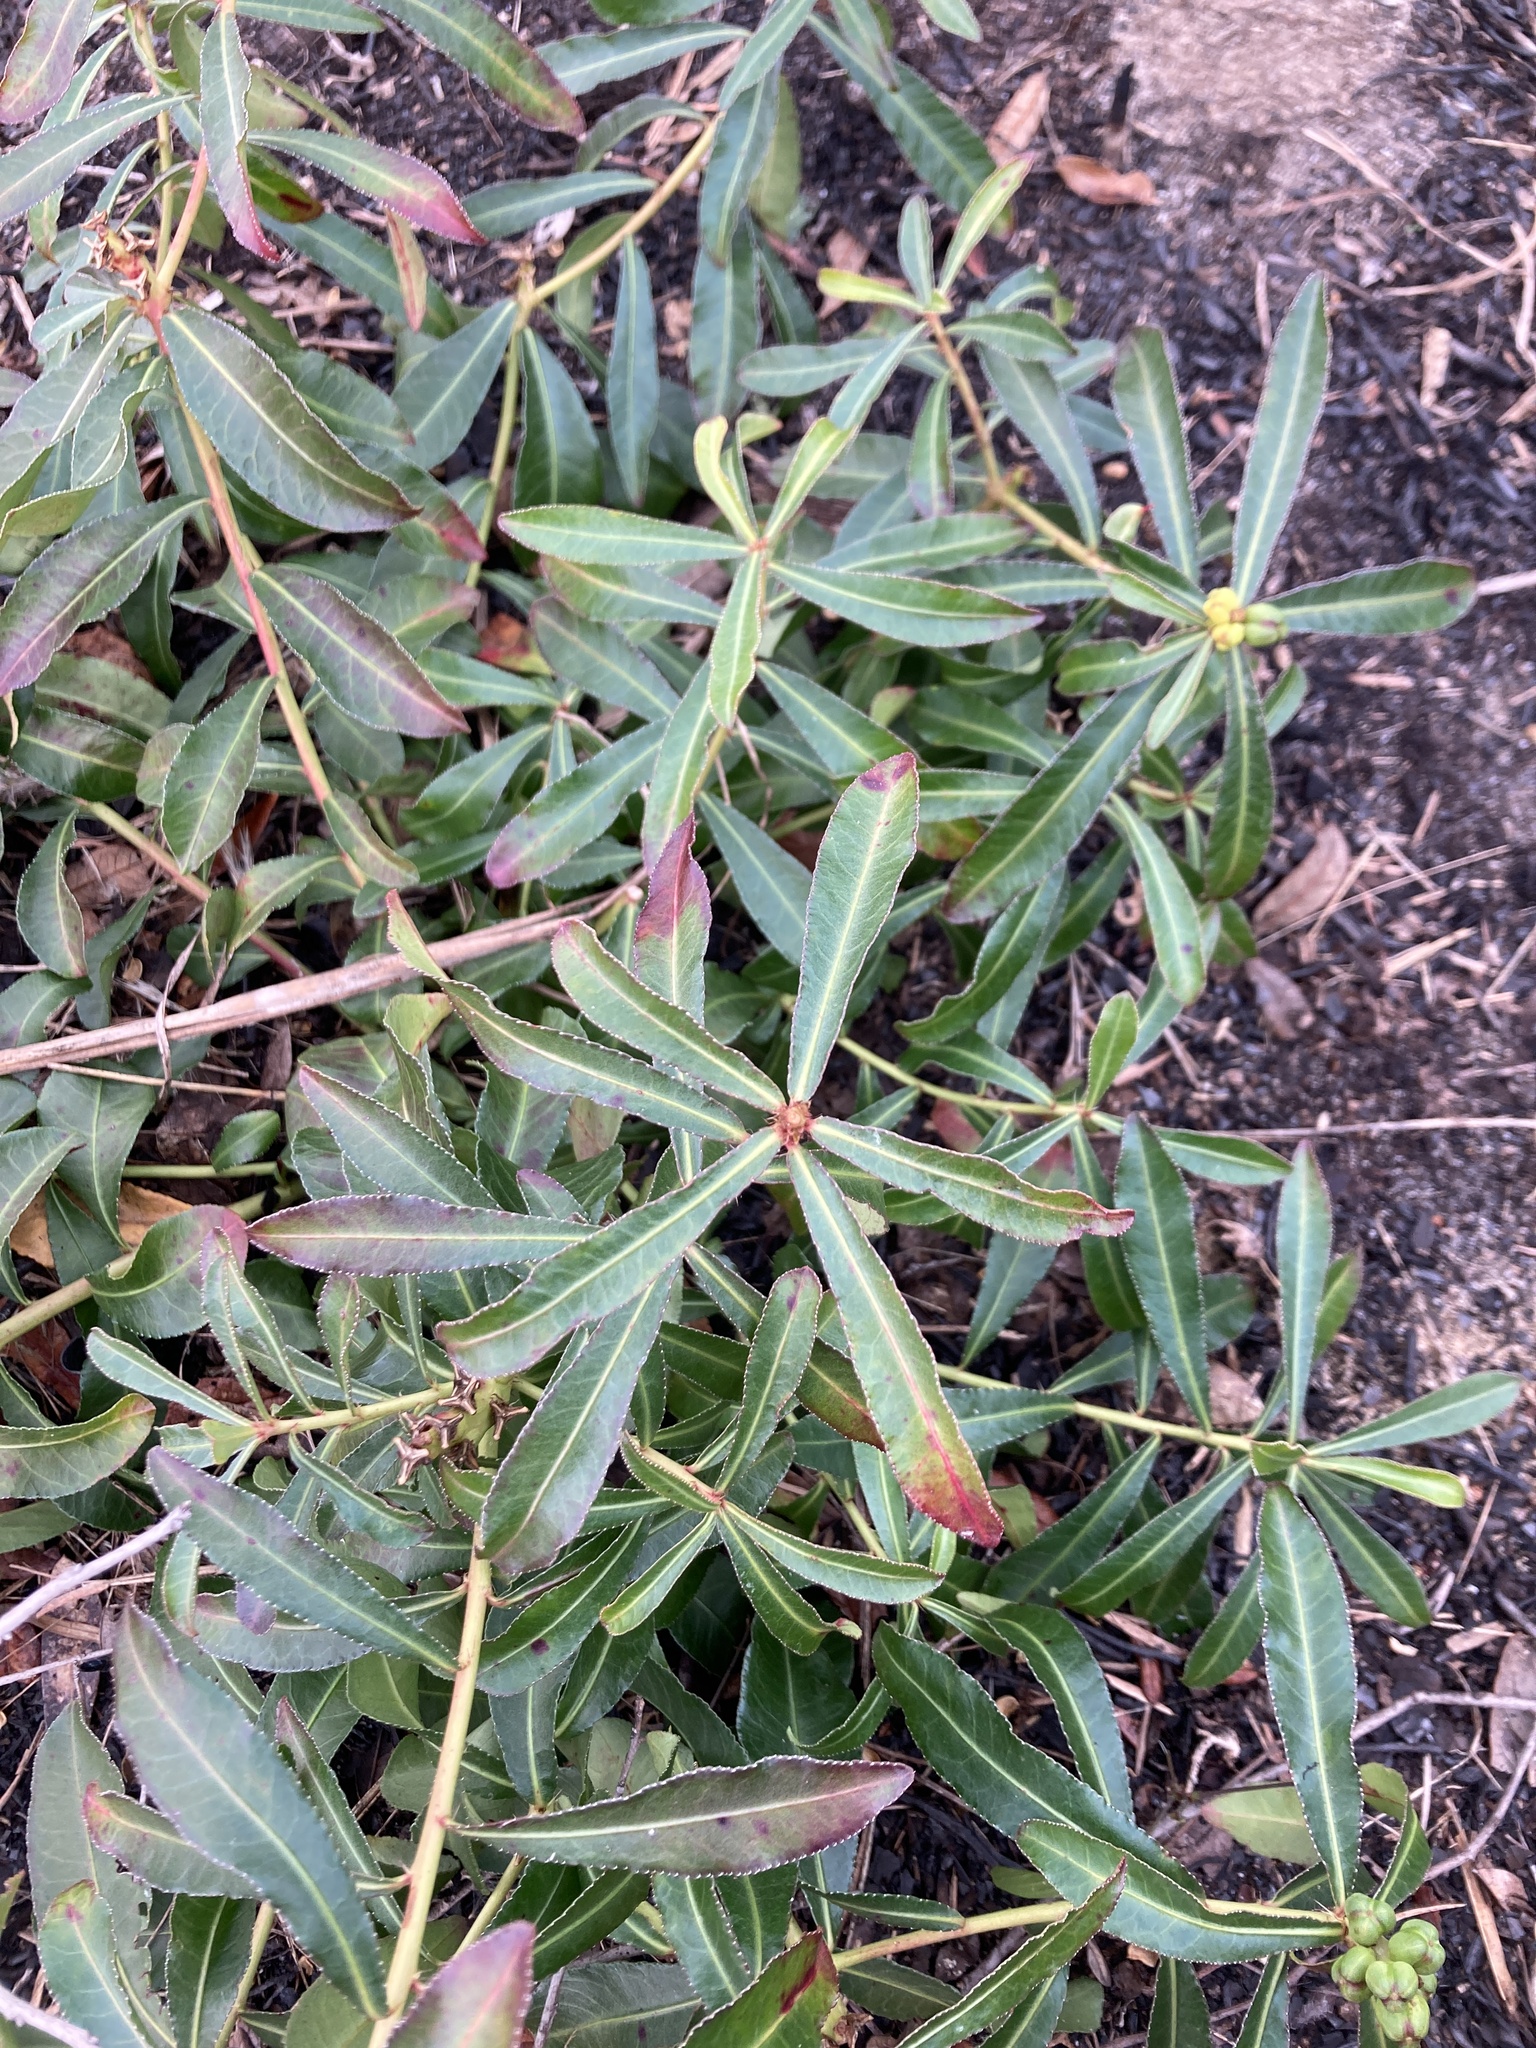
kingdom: Plantae
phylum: Tracheophyta
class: Magnoliopsida
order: Malpighiales
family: Euphorbiaceae
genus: Stillingia
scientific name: Stillingia sylvatica
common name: Queen's-delight
